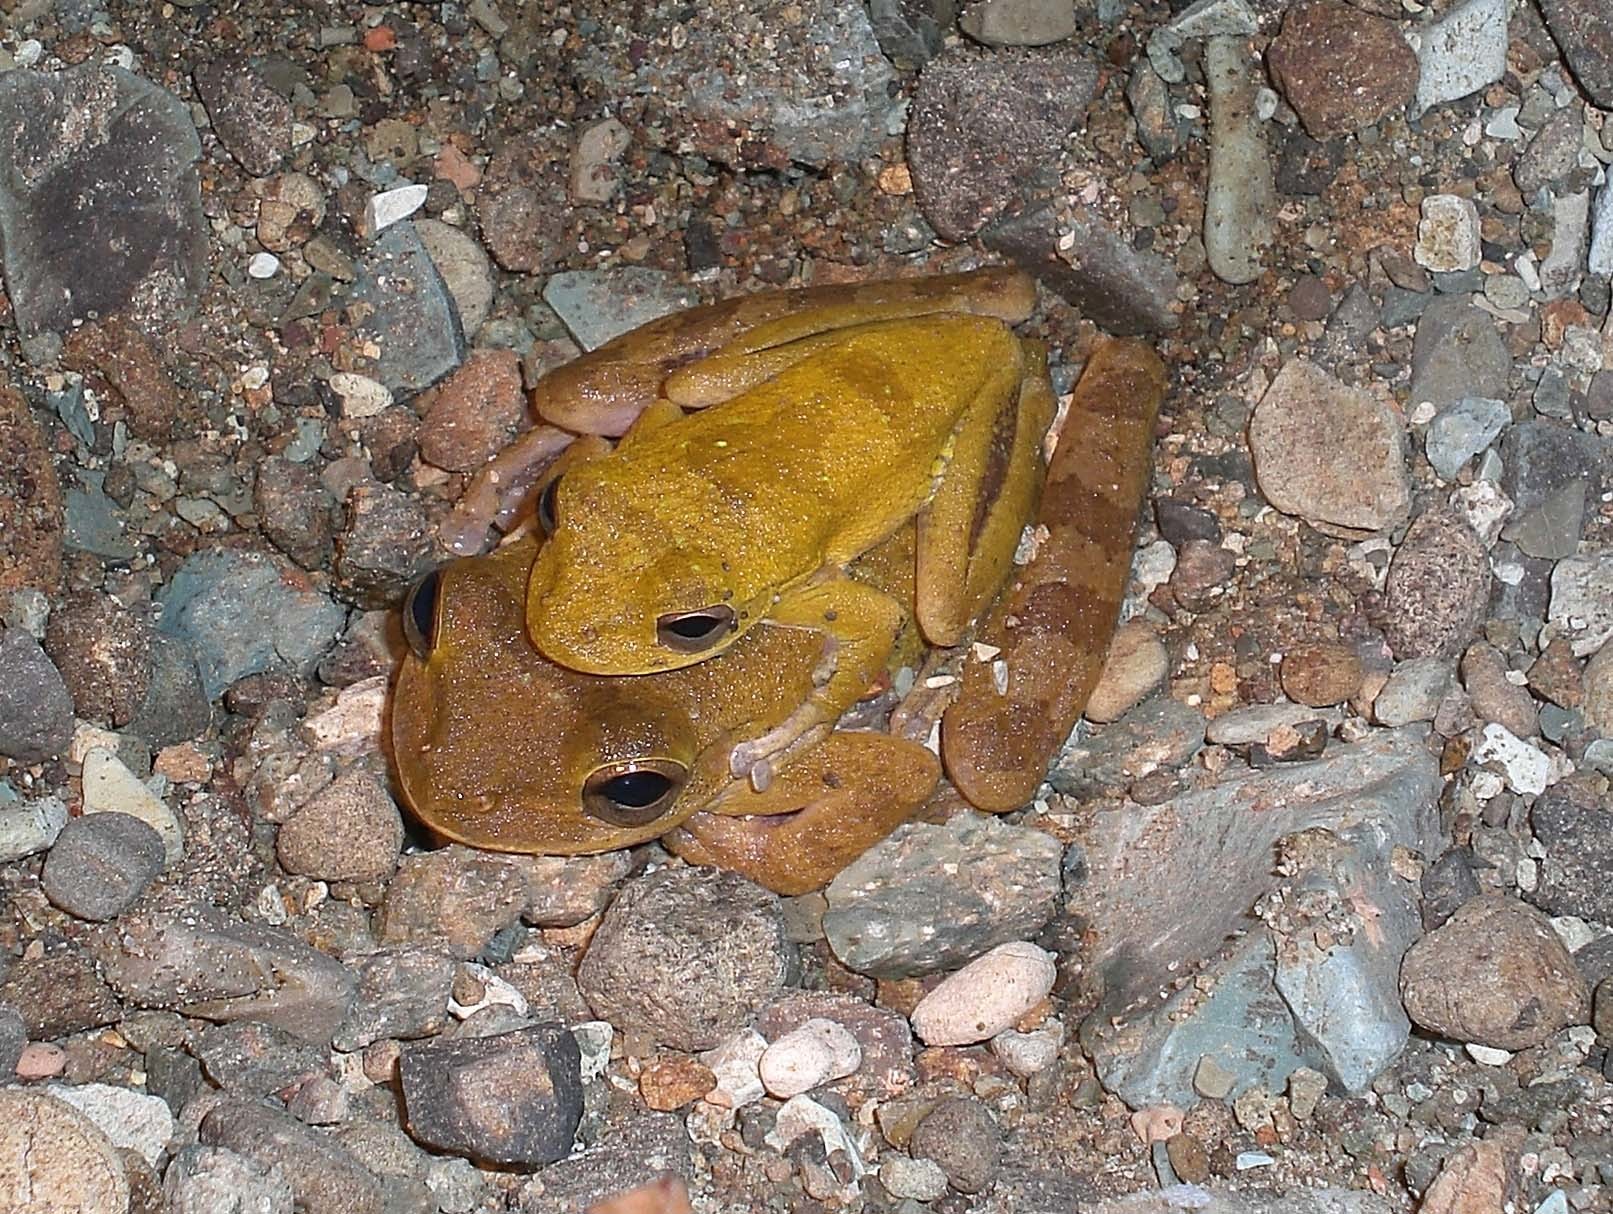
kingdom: Animalia
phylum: Chordata
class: Amphibia
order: Anura
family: Hylidae
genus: Smilisca
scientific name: Smilisca sordida
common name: Veragua cross-banded treefrog
